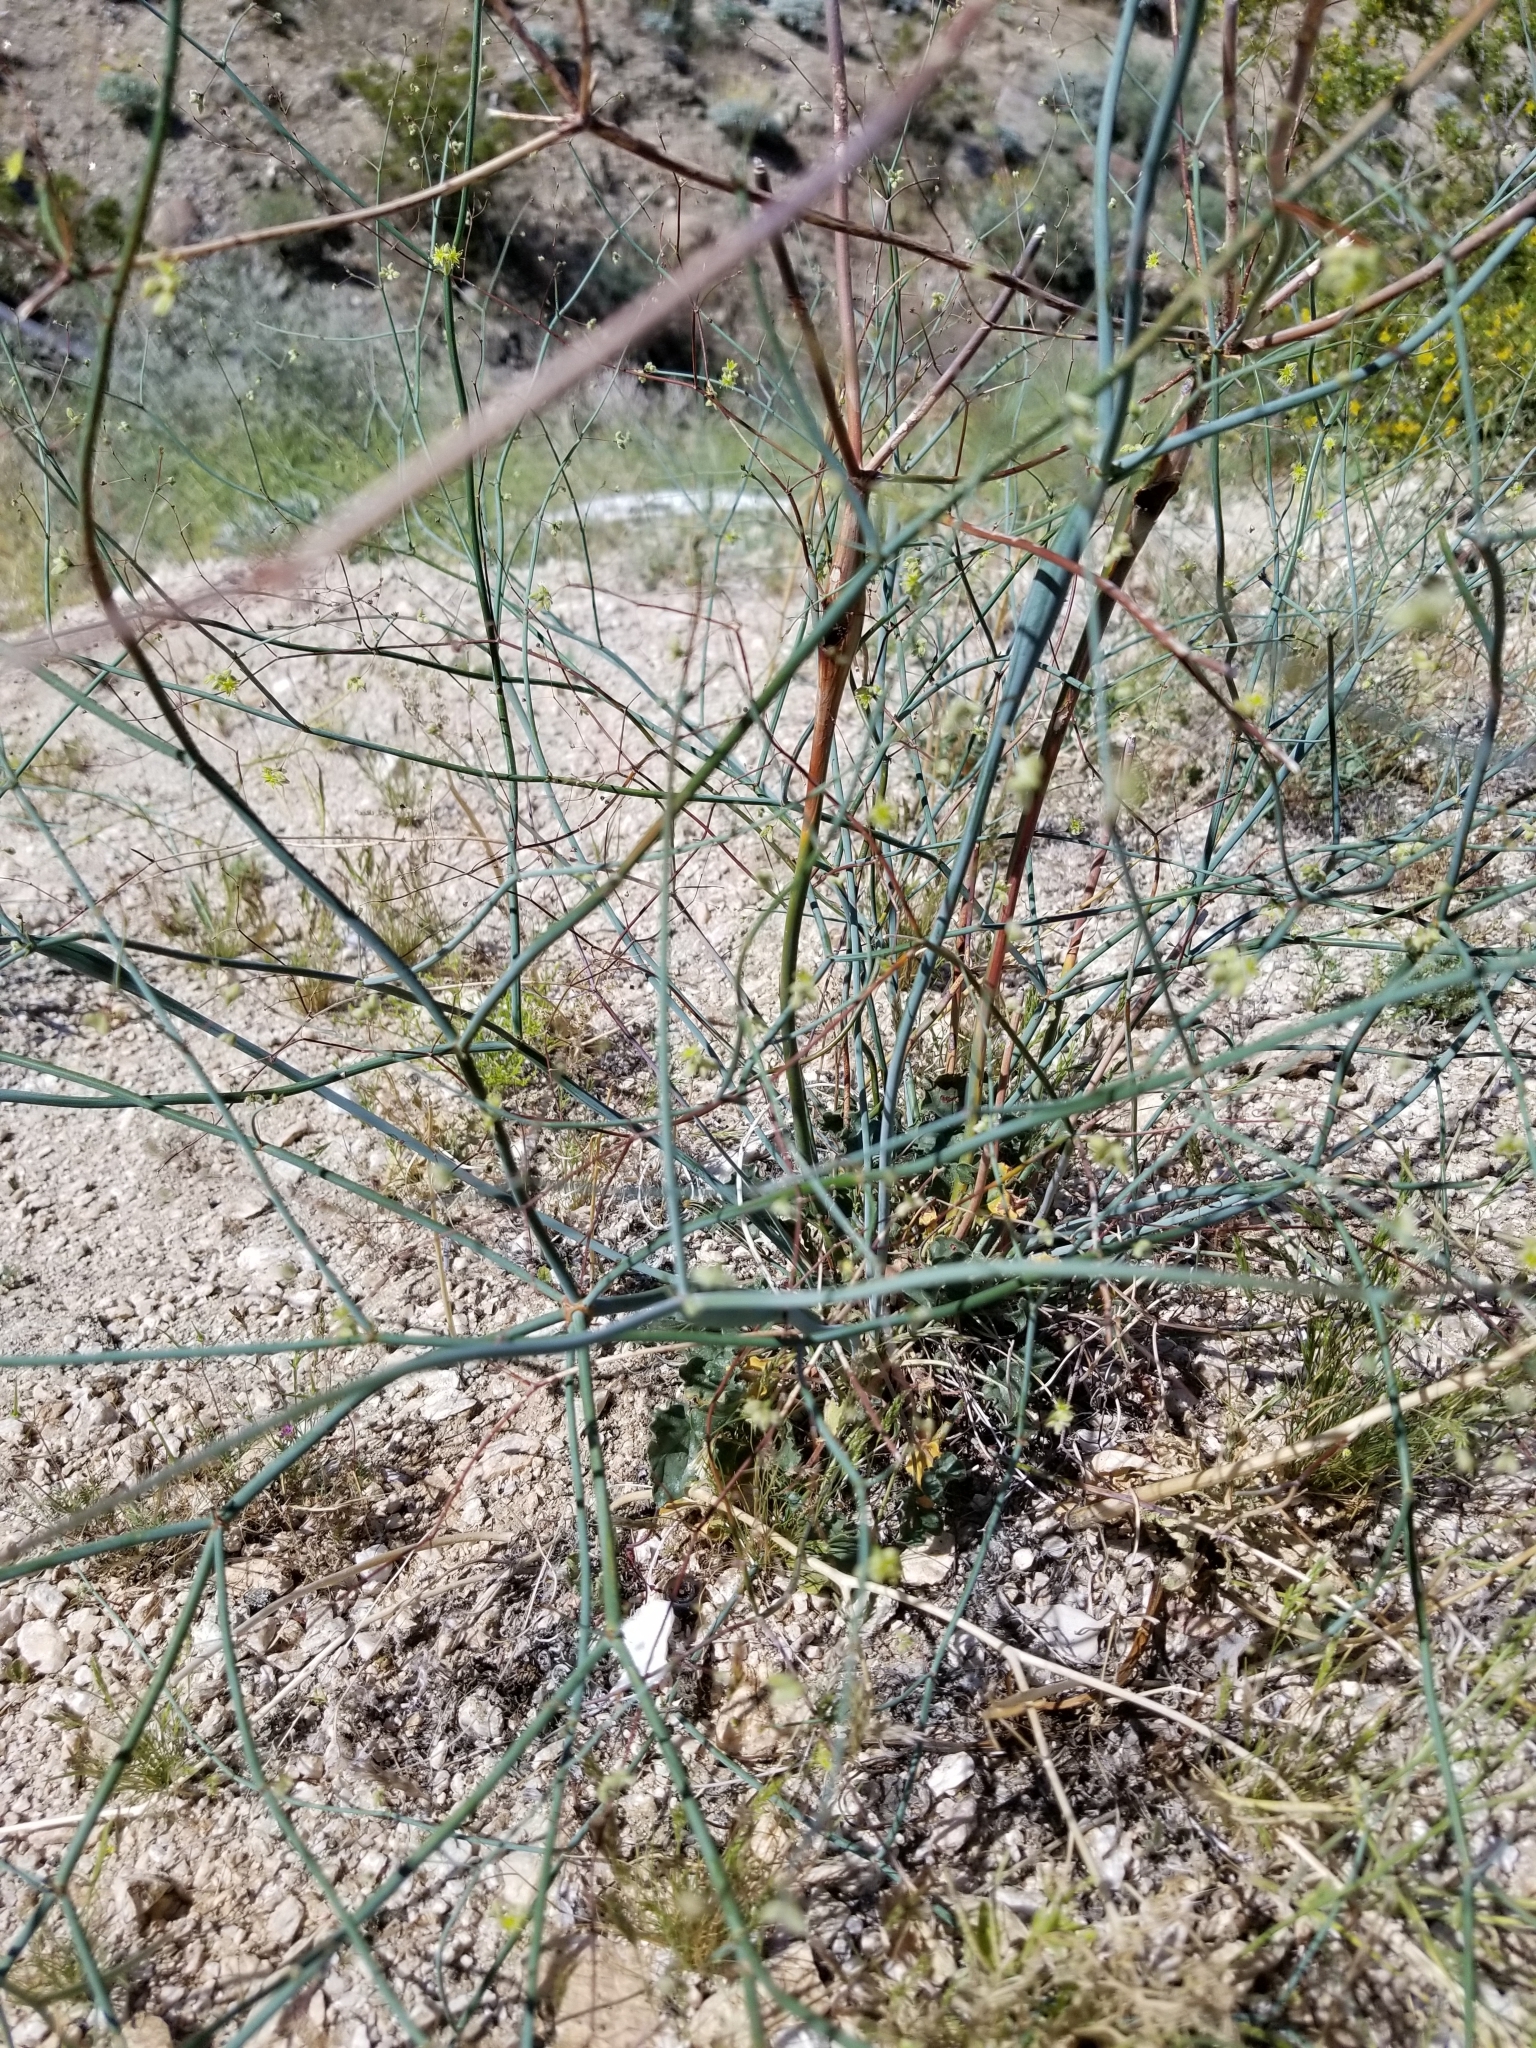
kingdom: Plantae
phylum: Tracheophyta
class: Magnoliopsida
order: Caryophyllales
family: Polygonaceae
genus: Eriogonum
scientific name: Eriogonum inflatum
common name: Desert trumpet
